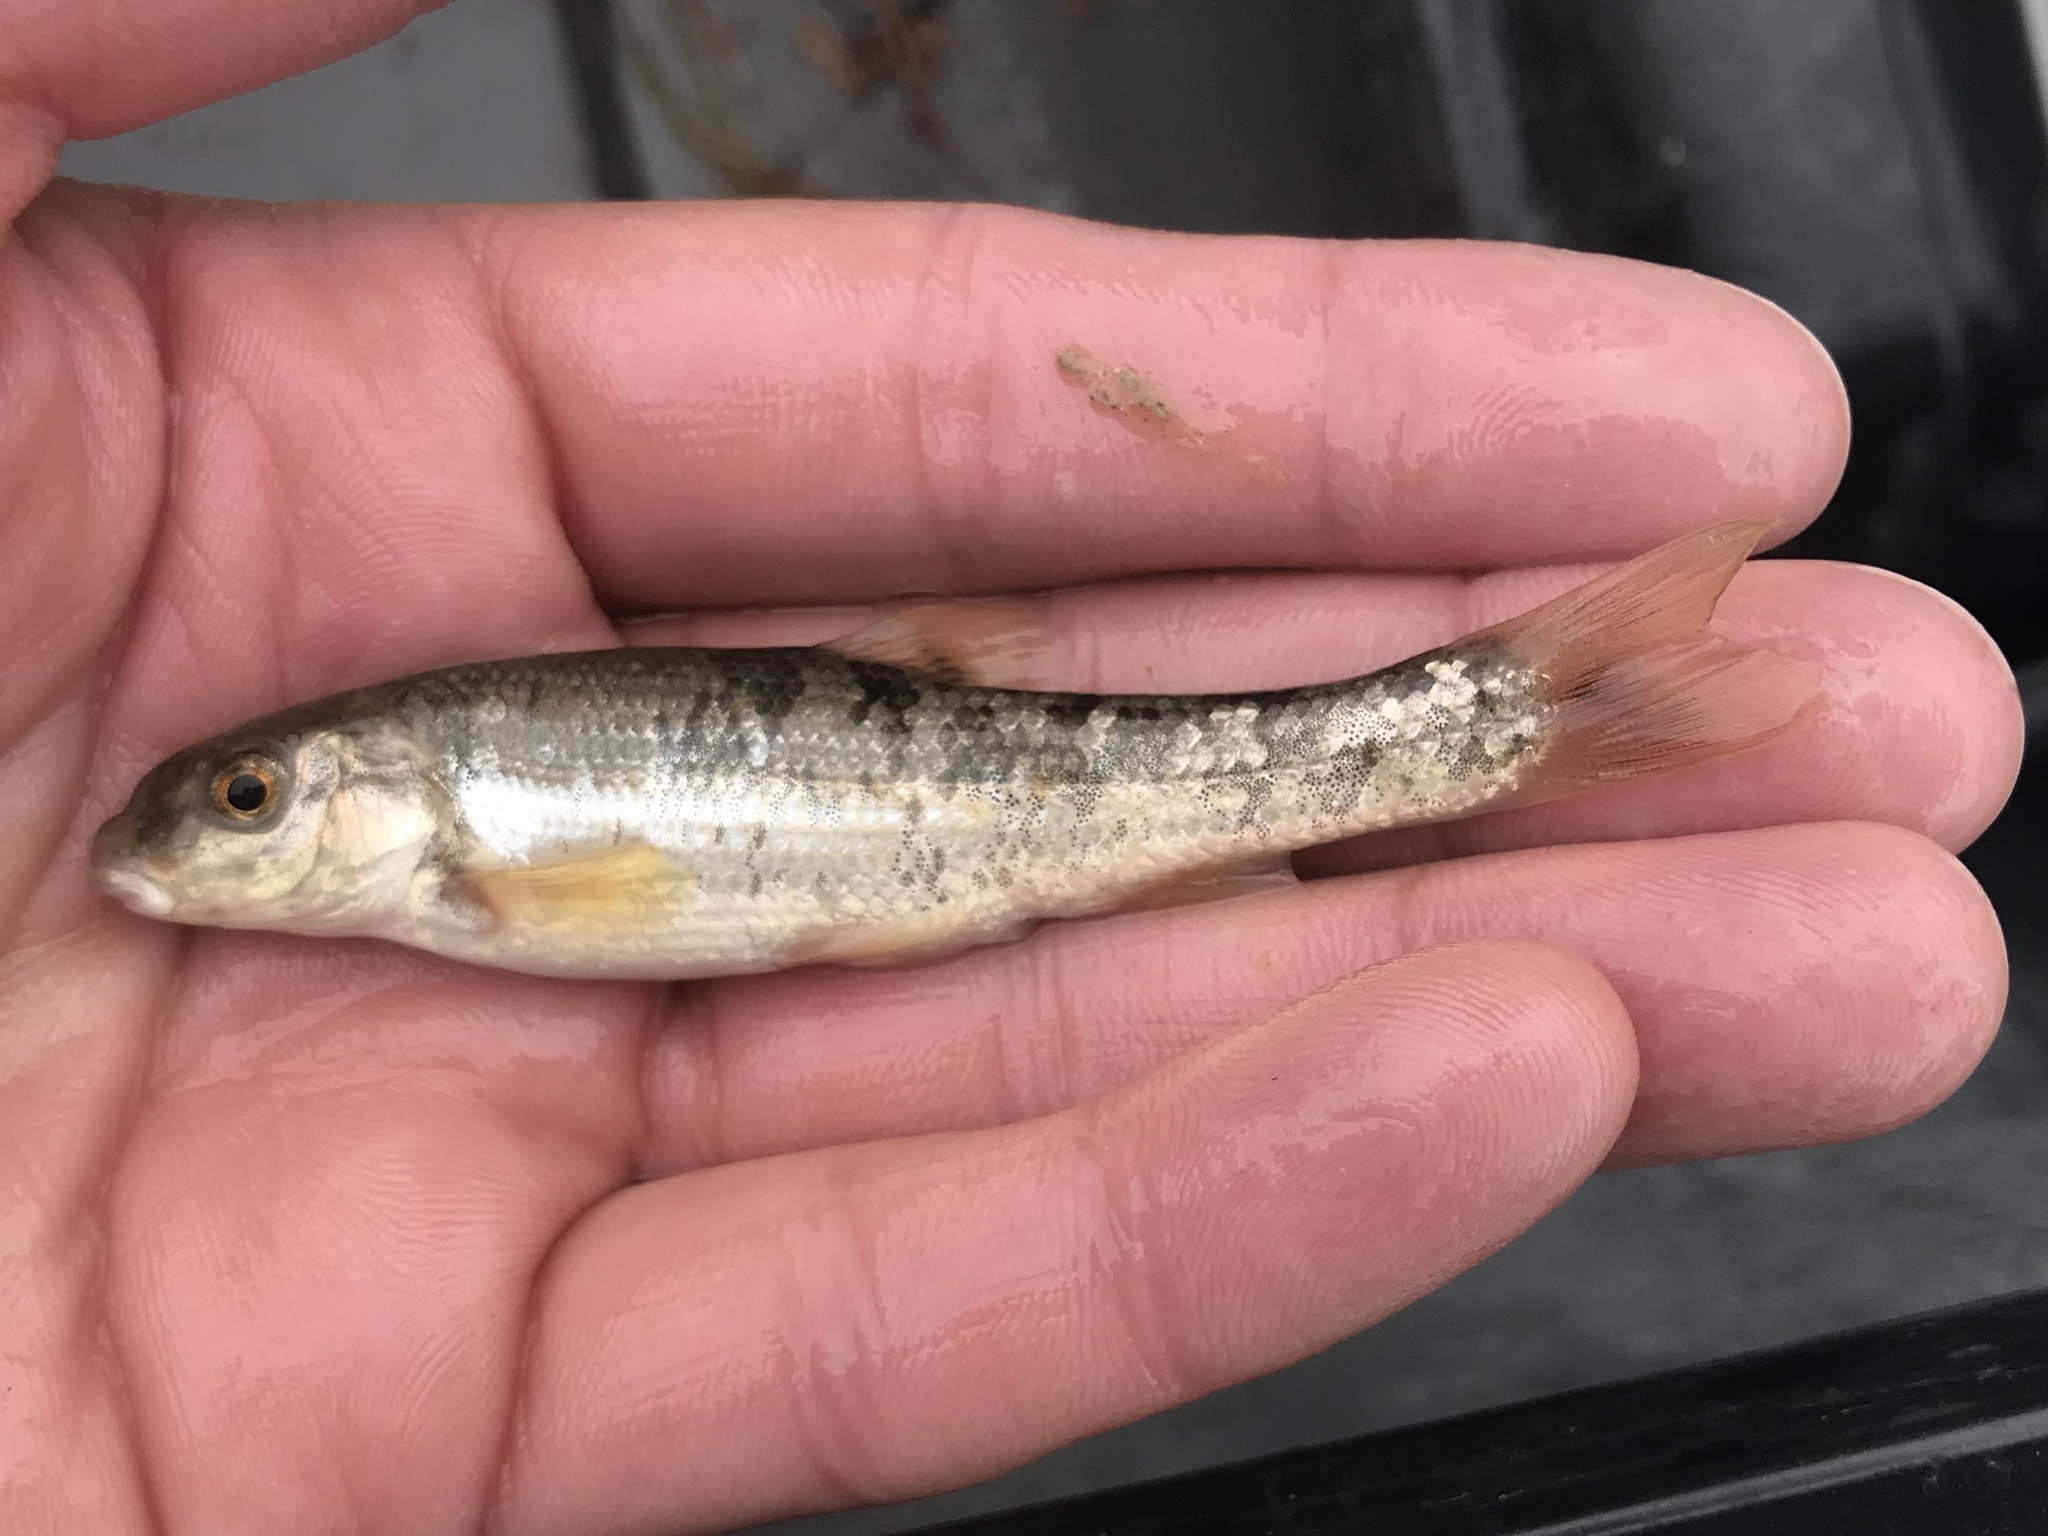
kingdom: Animalia
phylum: Chordata
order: Cypriniformes
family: Cyprinidae
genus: Campostoma
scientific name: Campostoma anomalum
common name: Central stoneroller
